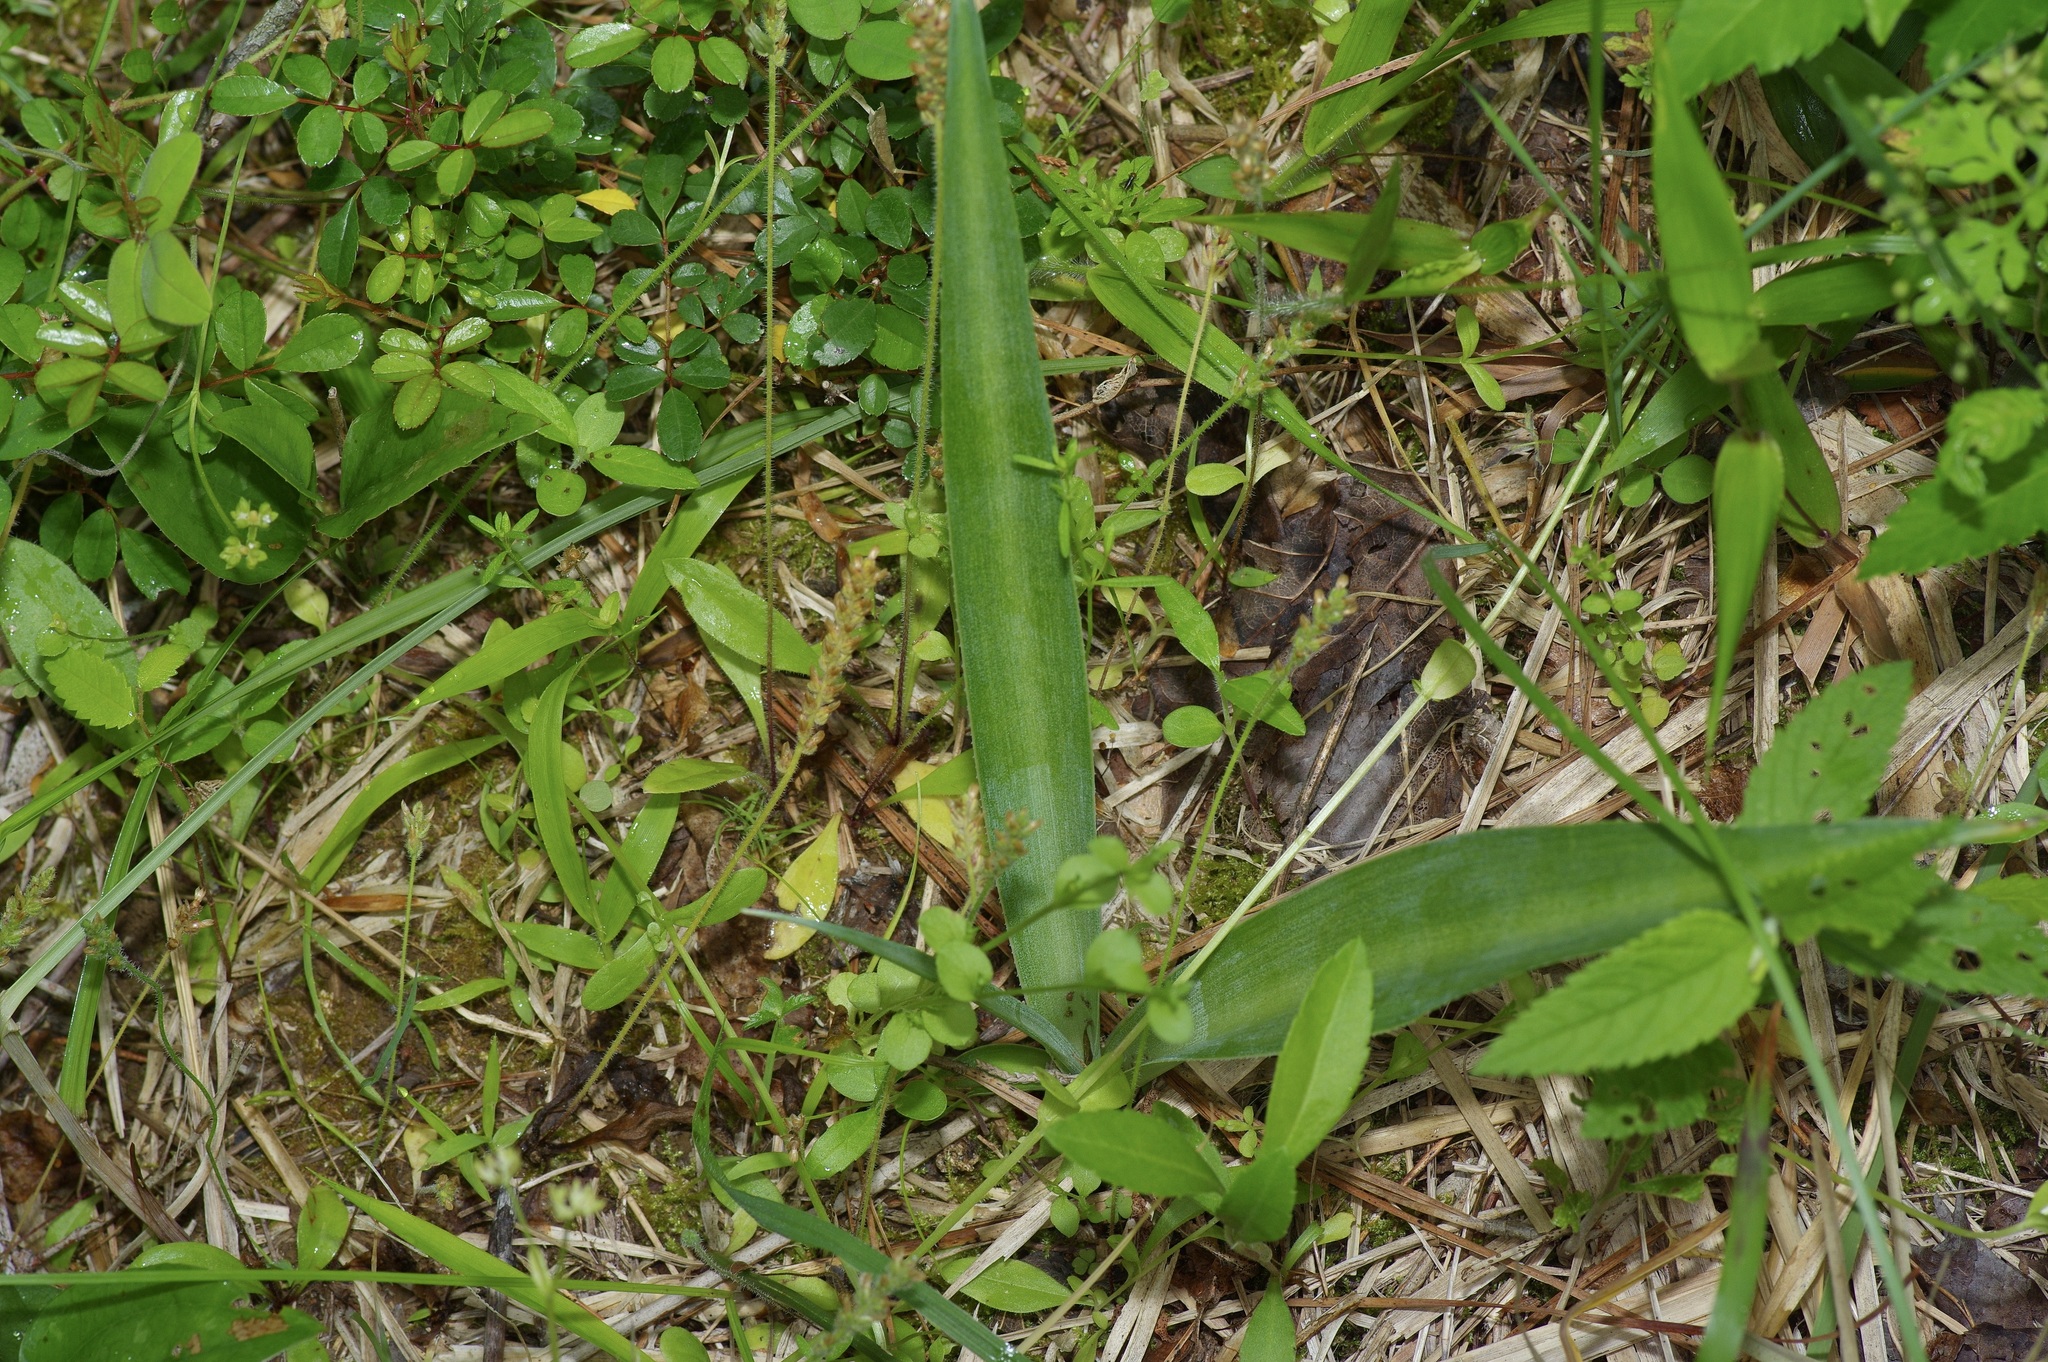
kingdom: Plantae
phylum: Tracheophyta
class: Liliopsida
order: Asparagales
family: Asparagaceae
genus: Agave
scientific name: Agave virginica
